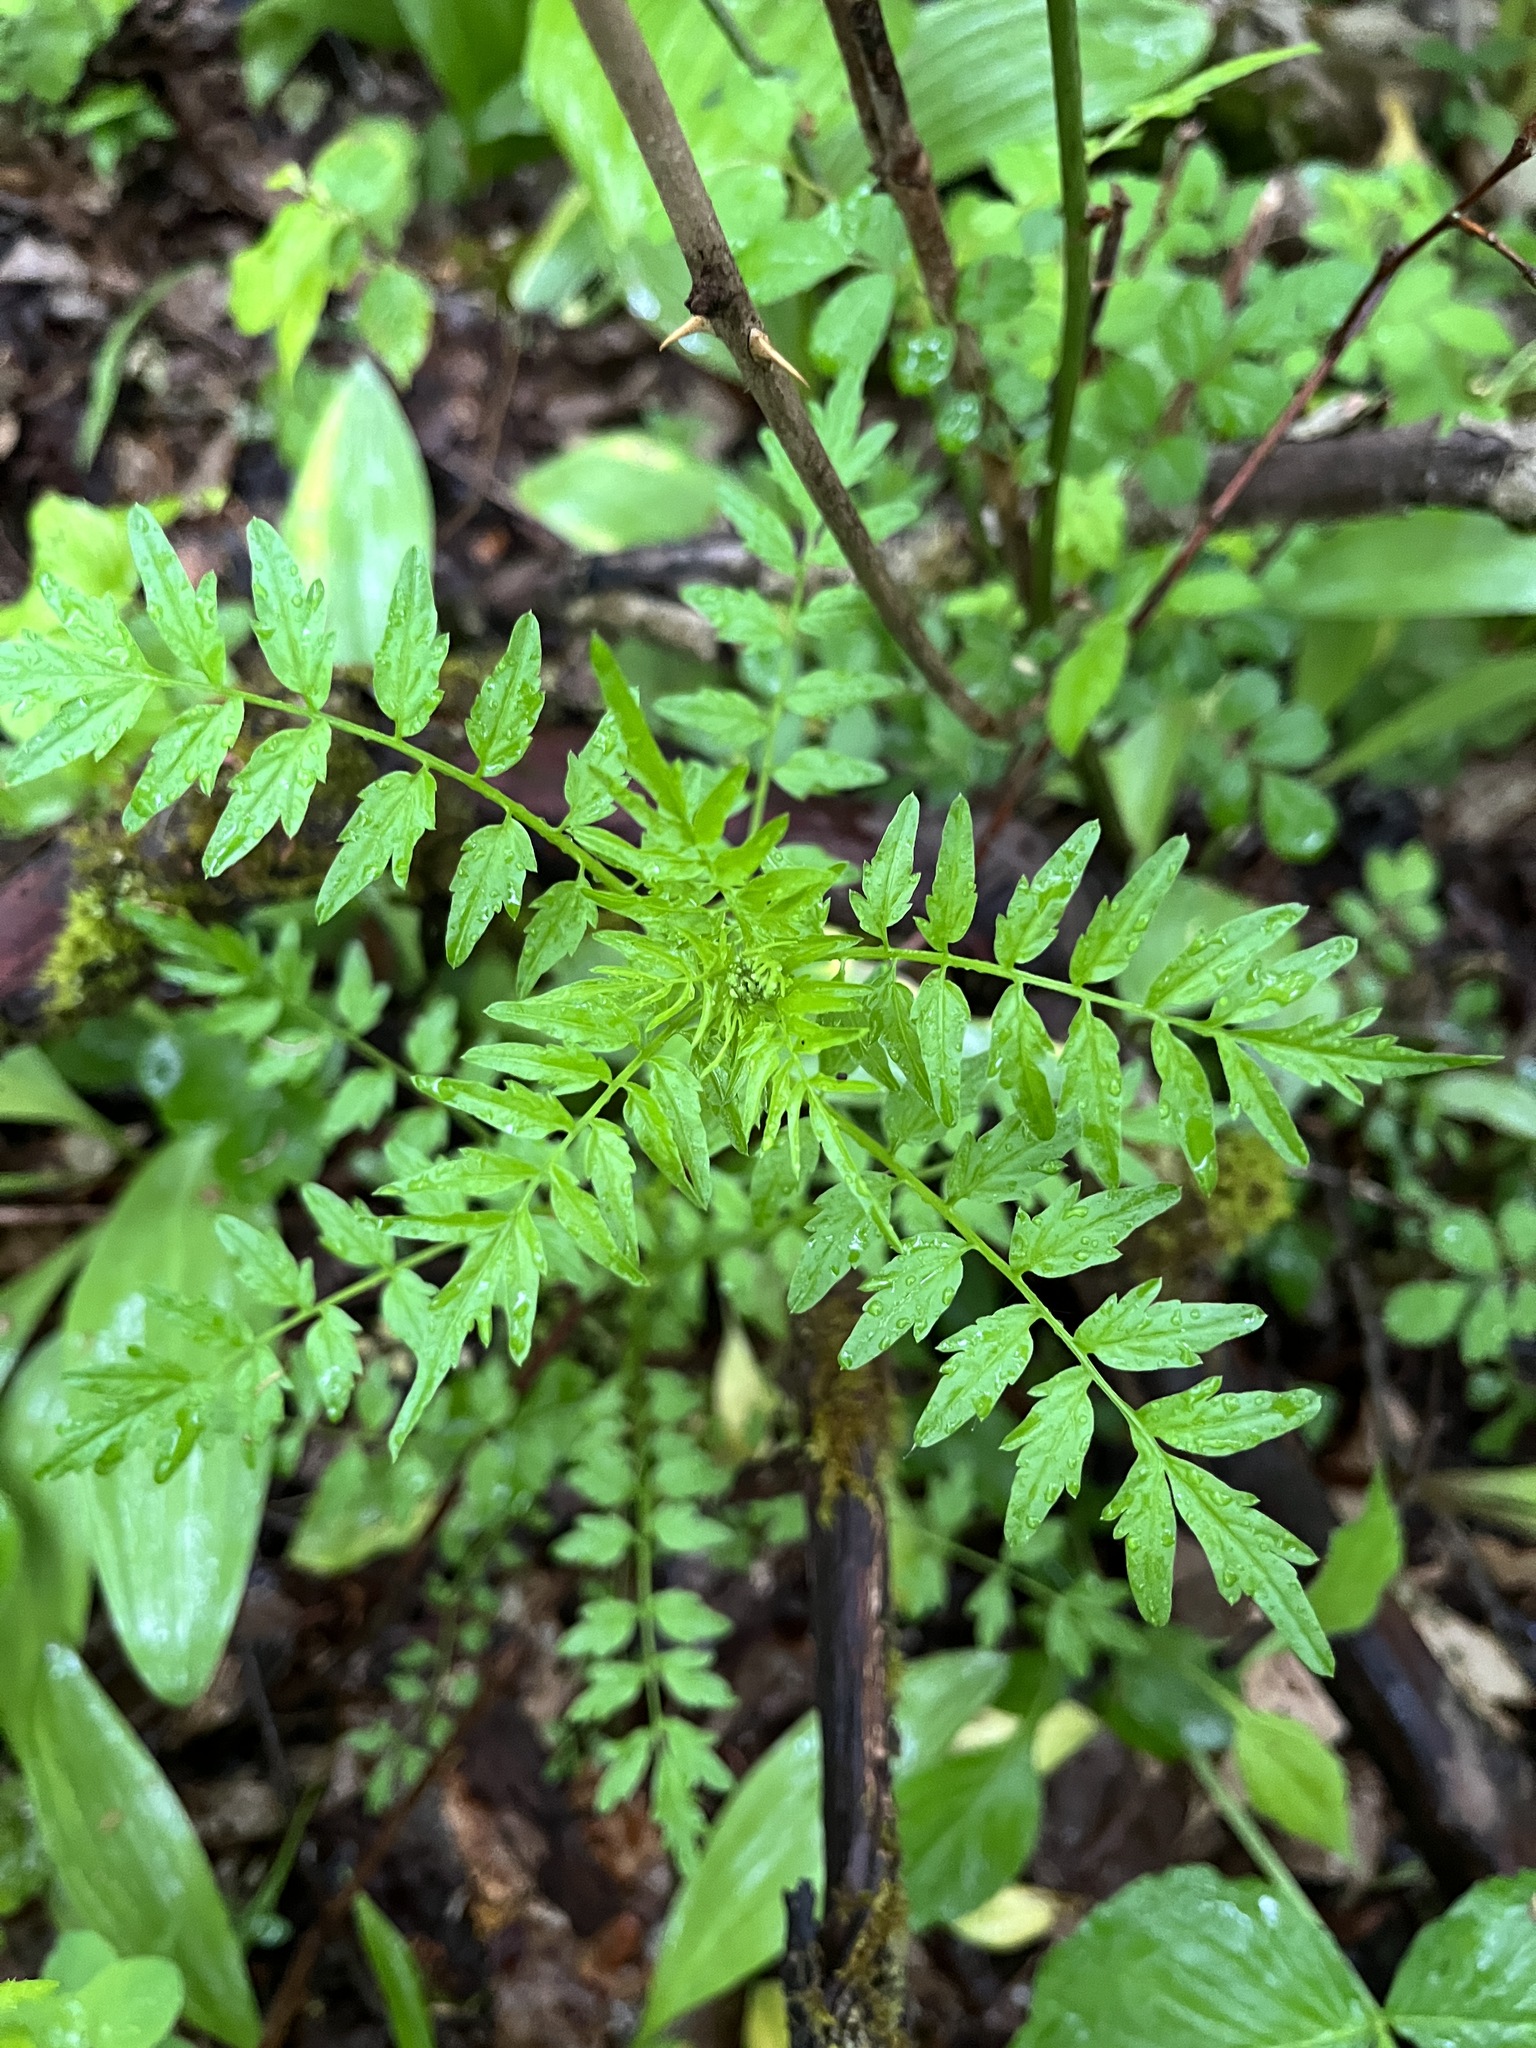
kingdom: Plantae
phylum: Tracheophyta
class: Magnoliopsida
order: Brassicales
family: Brassicaceae
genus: Cardamine
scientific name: Cardamine impatiens
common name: Narrow-leaved bitter-cress
